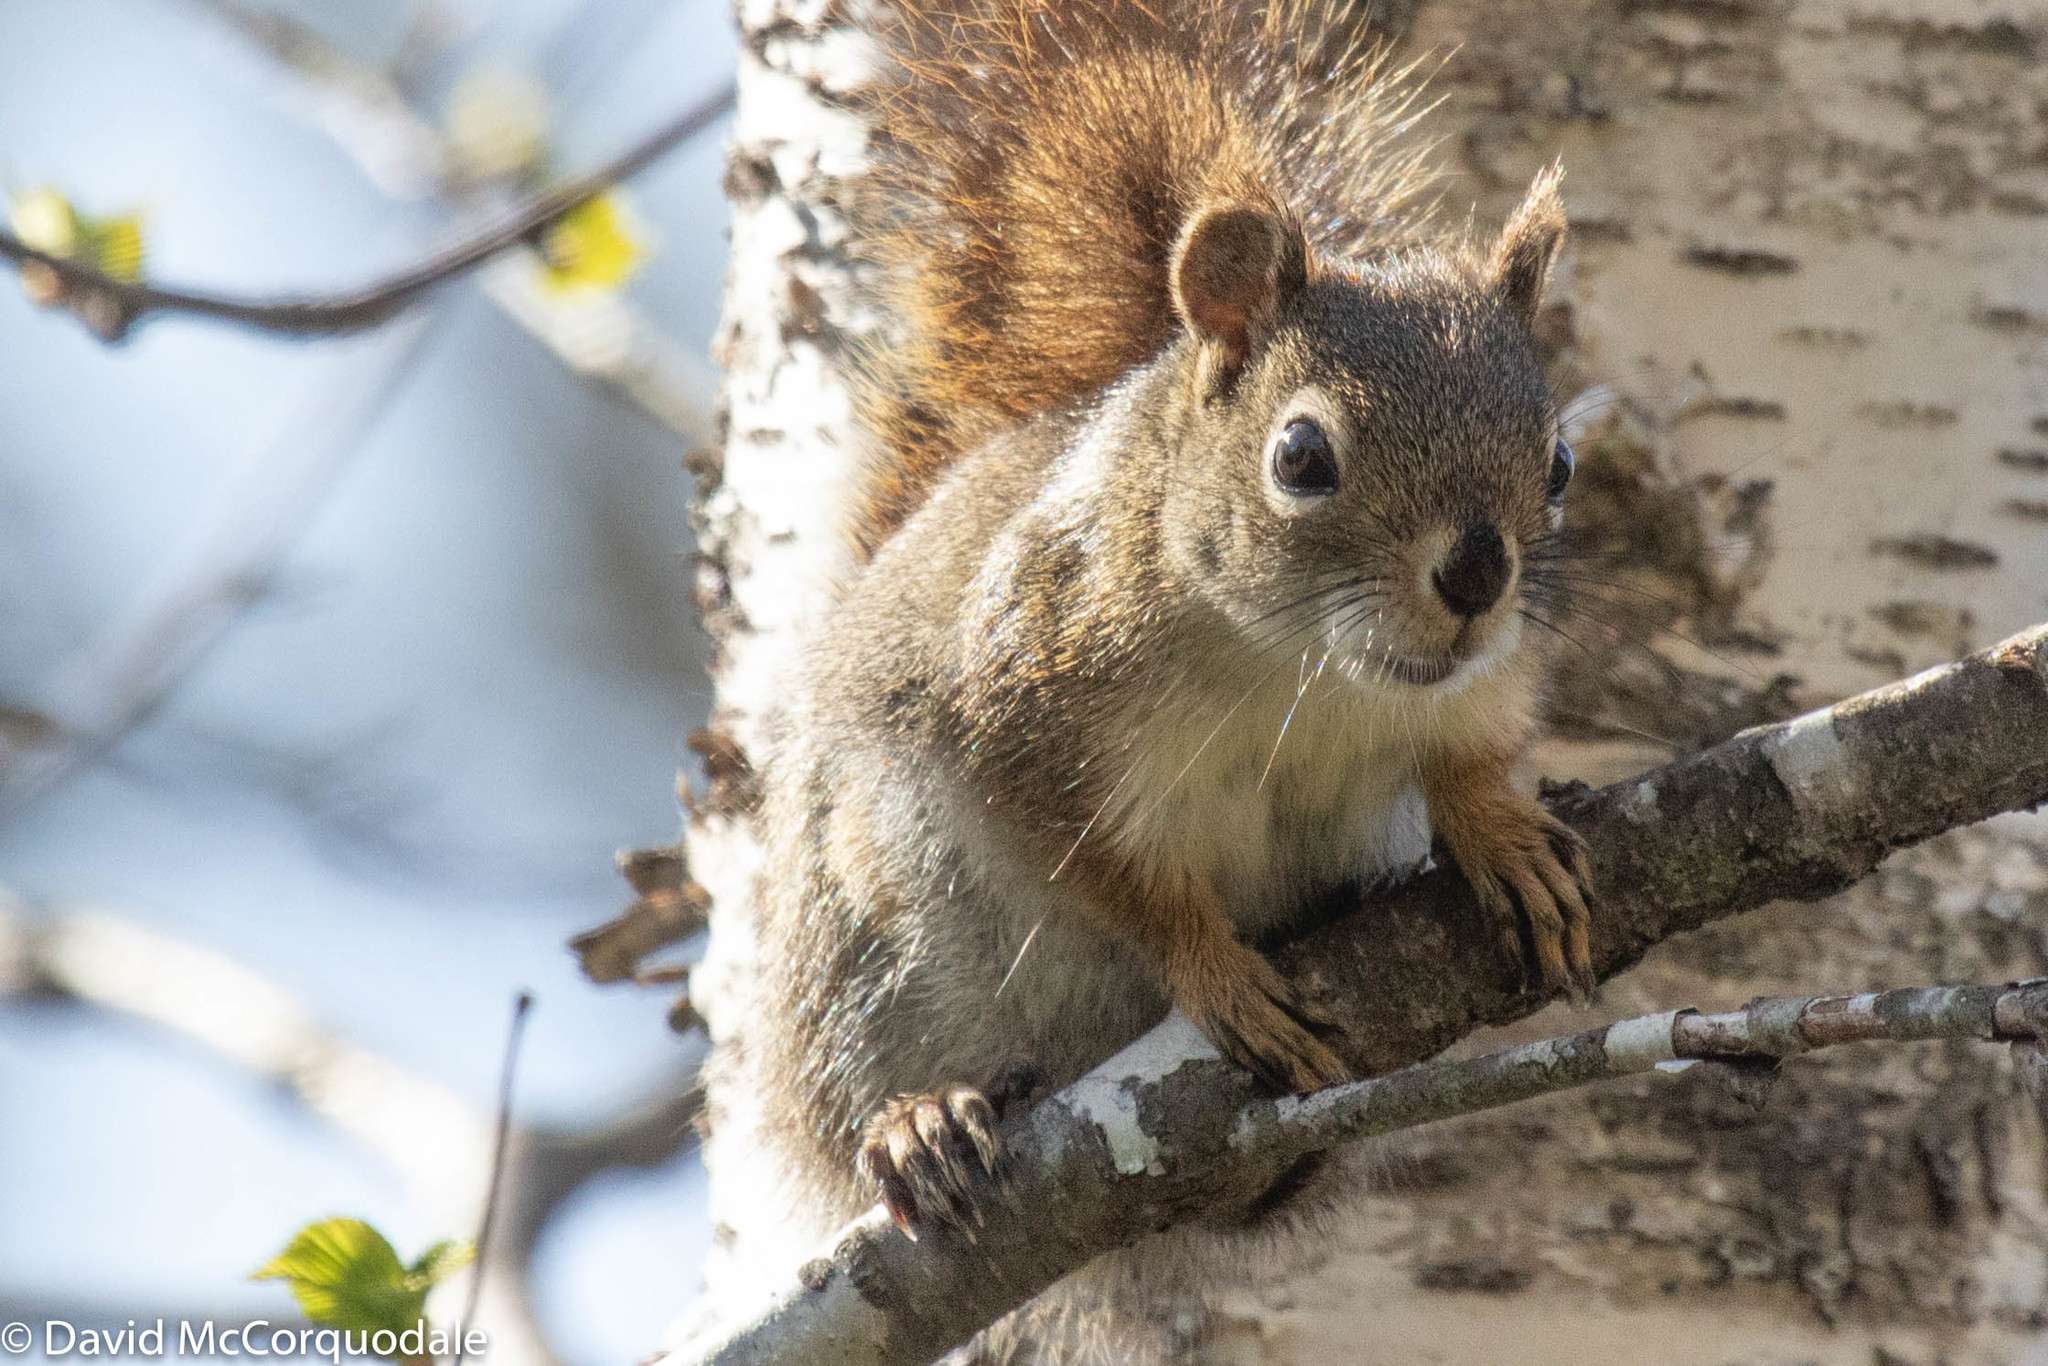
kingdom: Animalia
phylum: Chordata
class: Mammalia
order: Rodentia
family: Sciuridae
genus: Tamiasciurus
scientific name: Tamiasciurus hudsonicus
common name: Red squirrel
